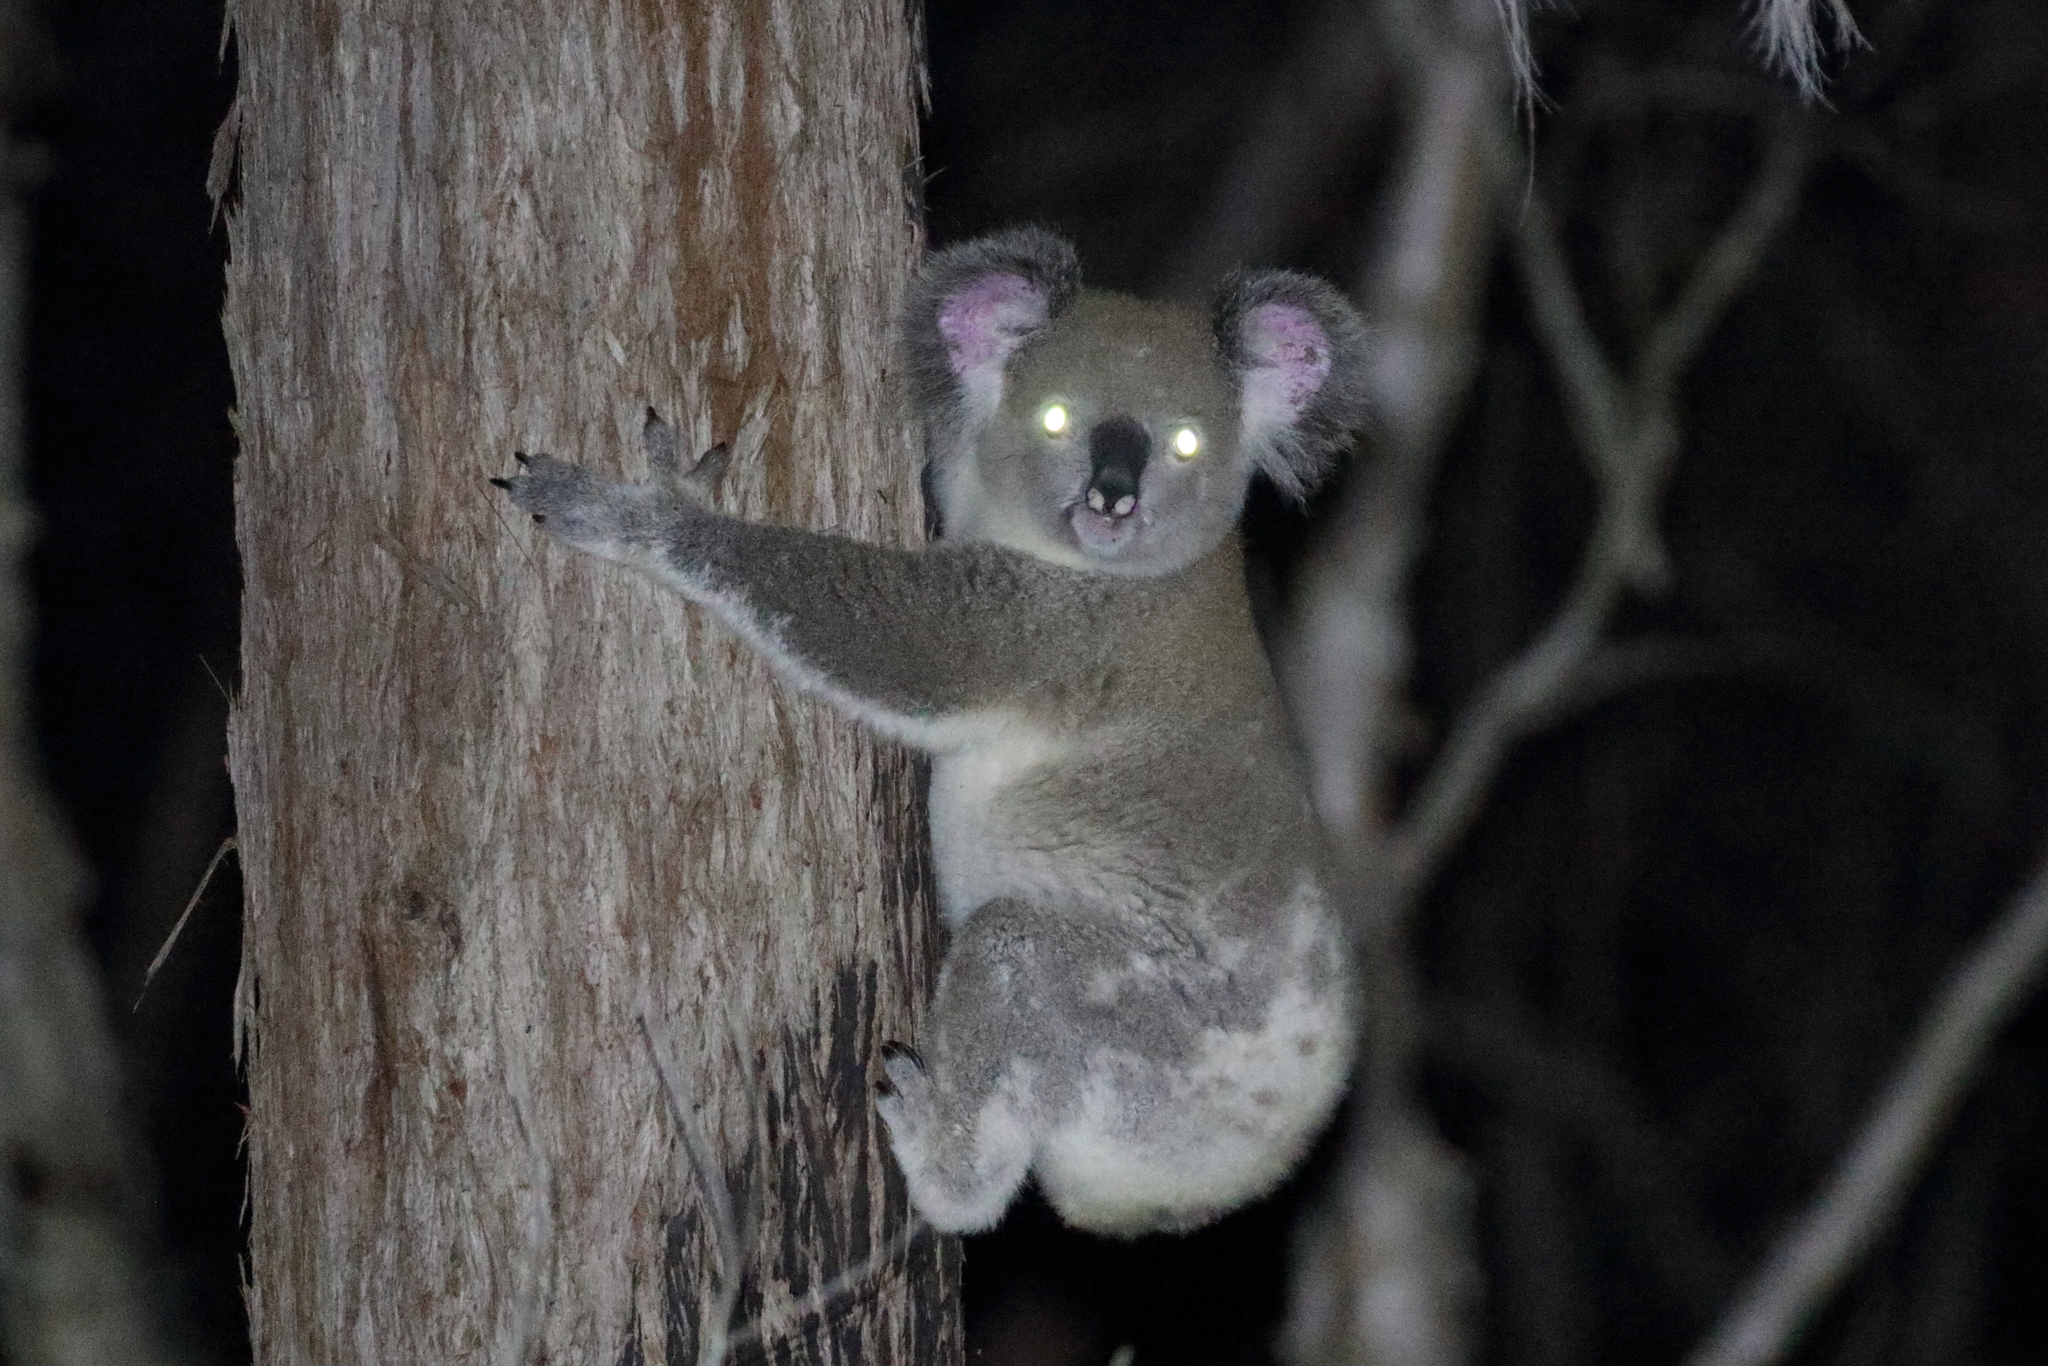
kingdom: Animalia
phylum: Chordata
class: Mammalia
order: Diprotodontia
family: Phascolarctidae
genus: Phascolarctos
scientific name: Phascolarctos cinereus
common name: Koala
